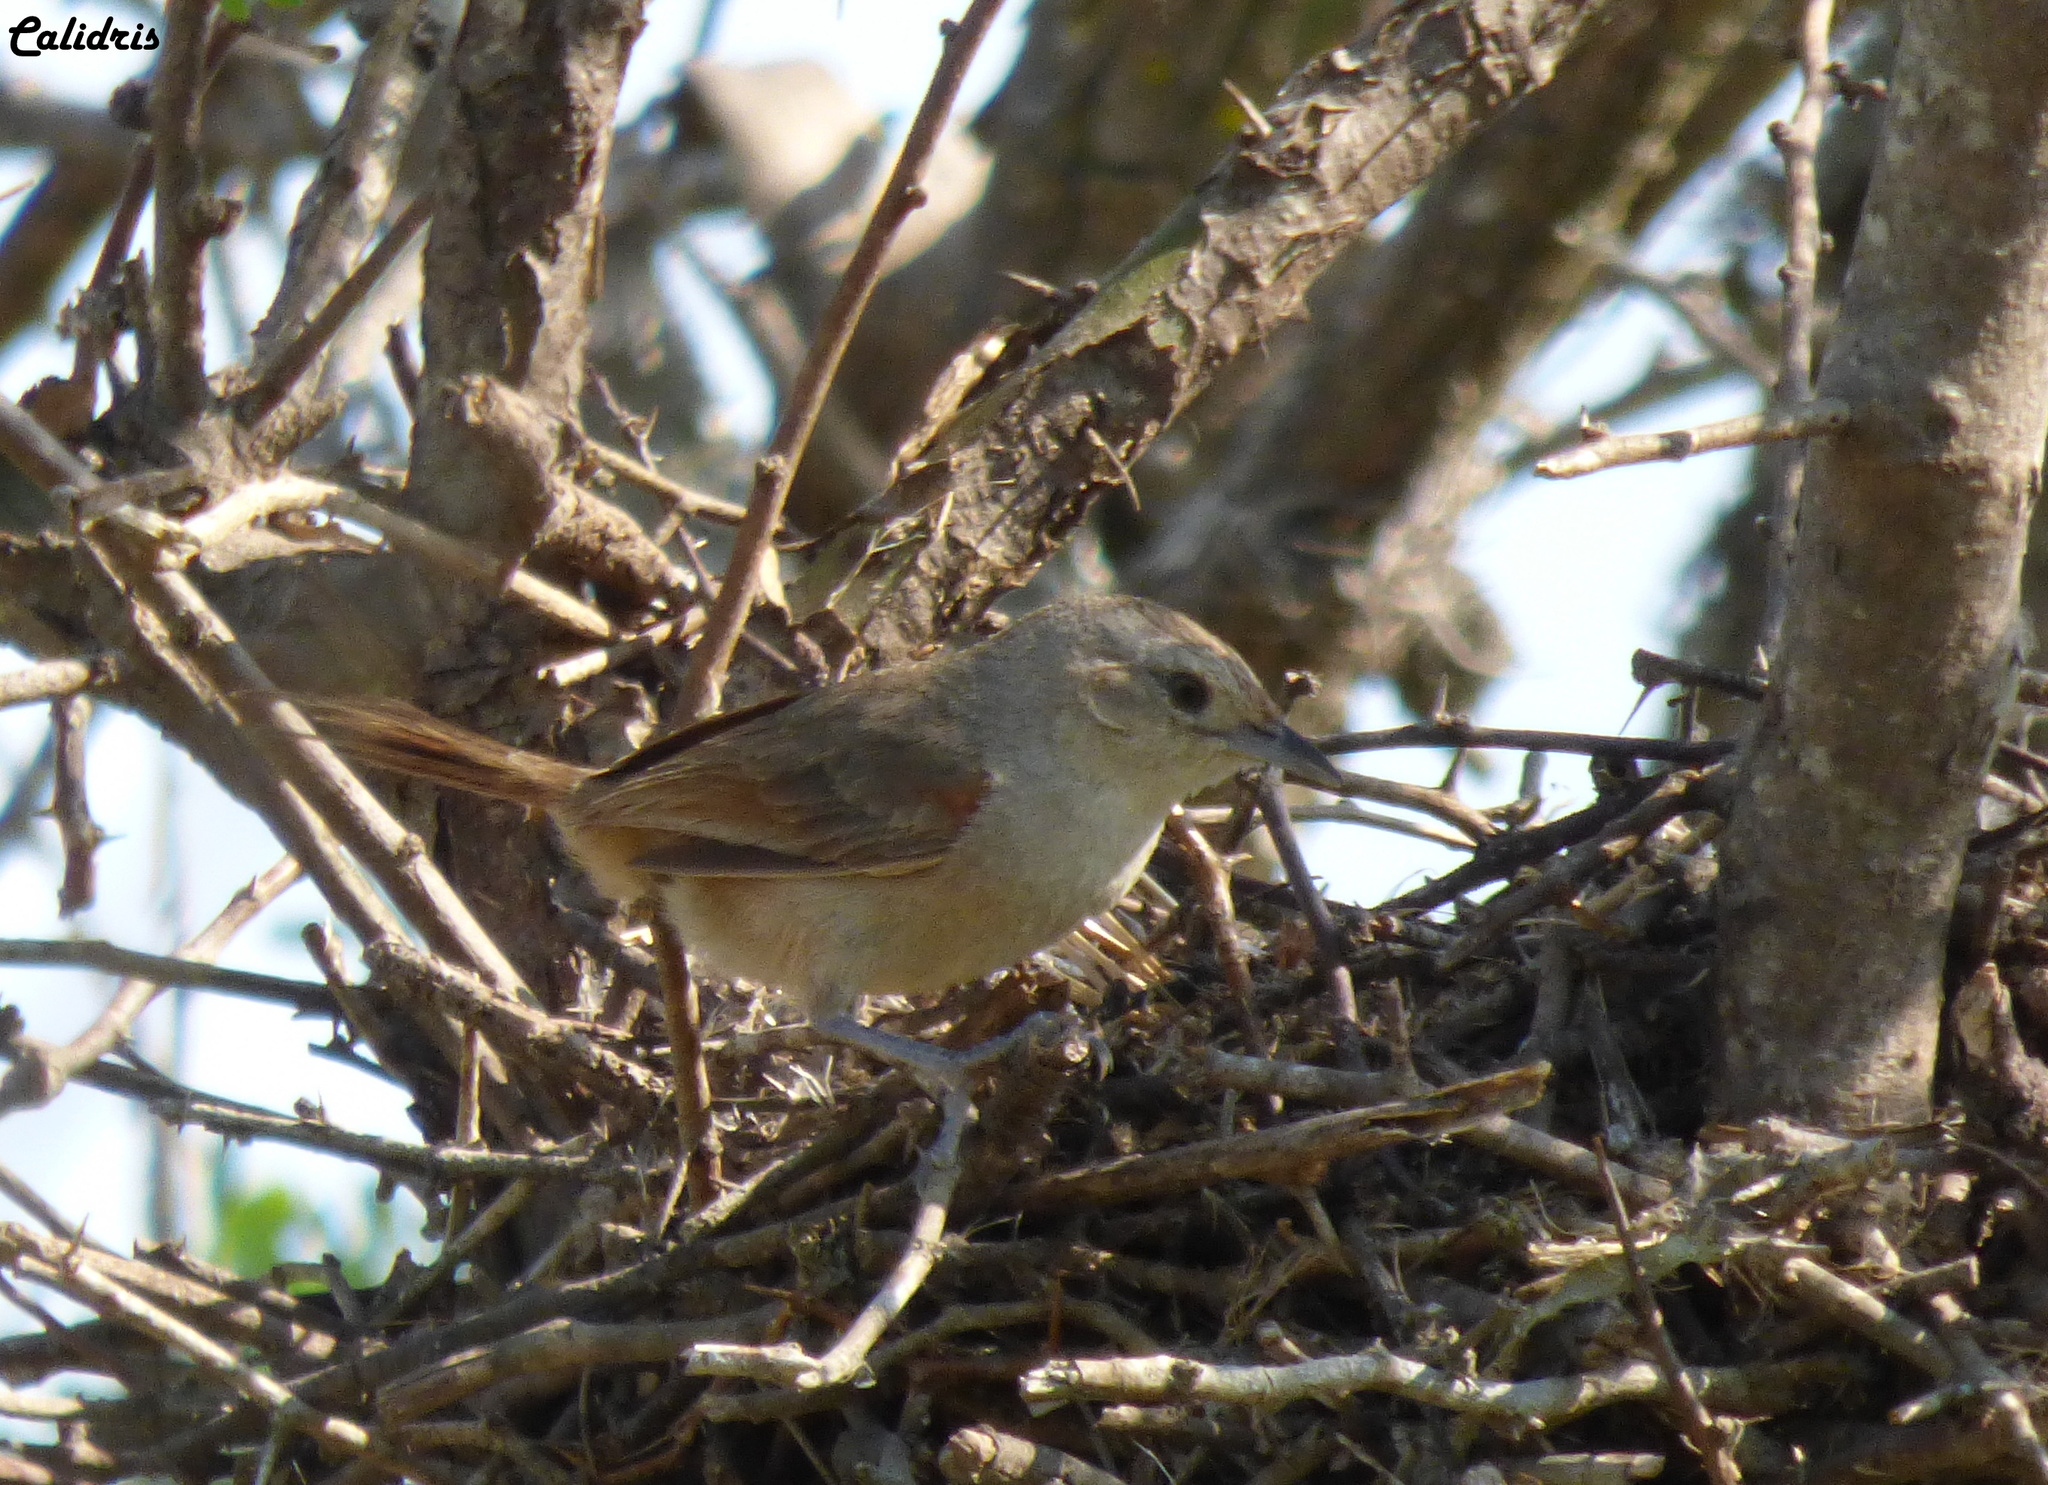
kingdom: Animalia
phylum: Chordata
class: Aves
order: Passeriformes
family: Furnariidae
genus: Phacellodomus
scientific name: Phacellodomus sibilatrix
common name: Little thornbird
